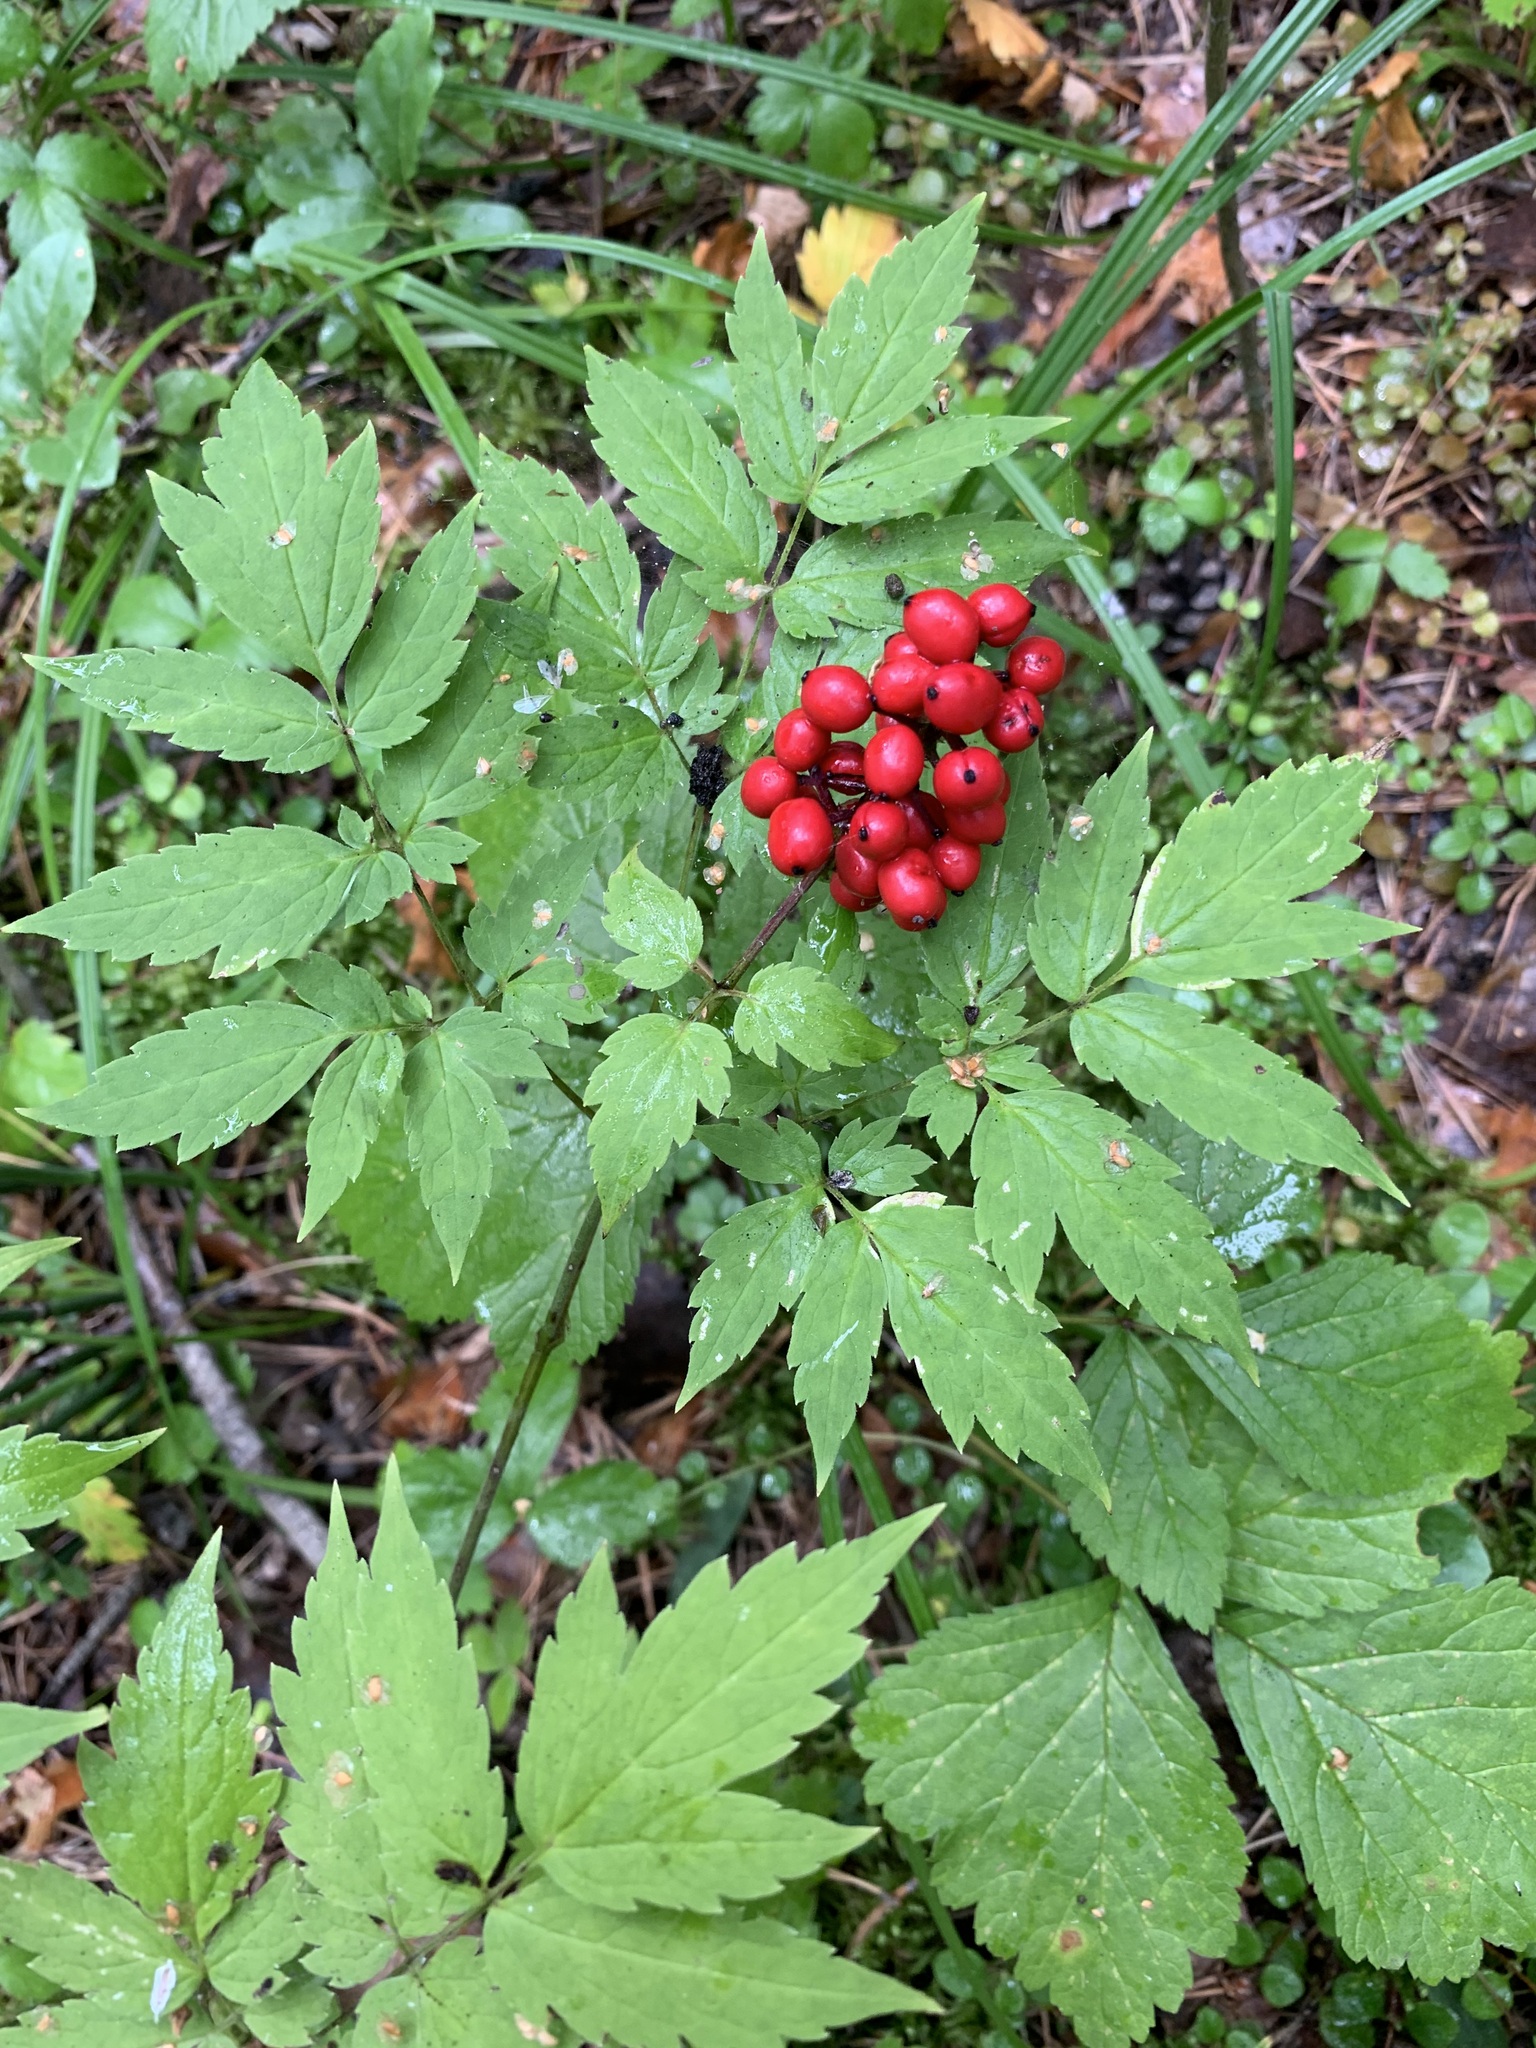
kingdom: Plantae
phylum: Tracheophyta
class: Magnoliopsida
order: Ranunculales
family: Ranunculaceae
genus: Actaea
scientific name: Actaea erythrocarpa
